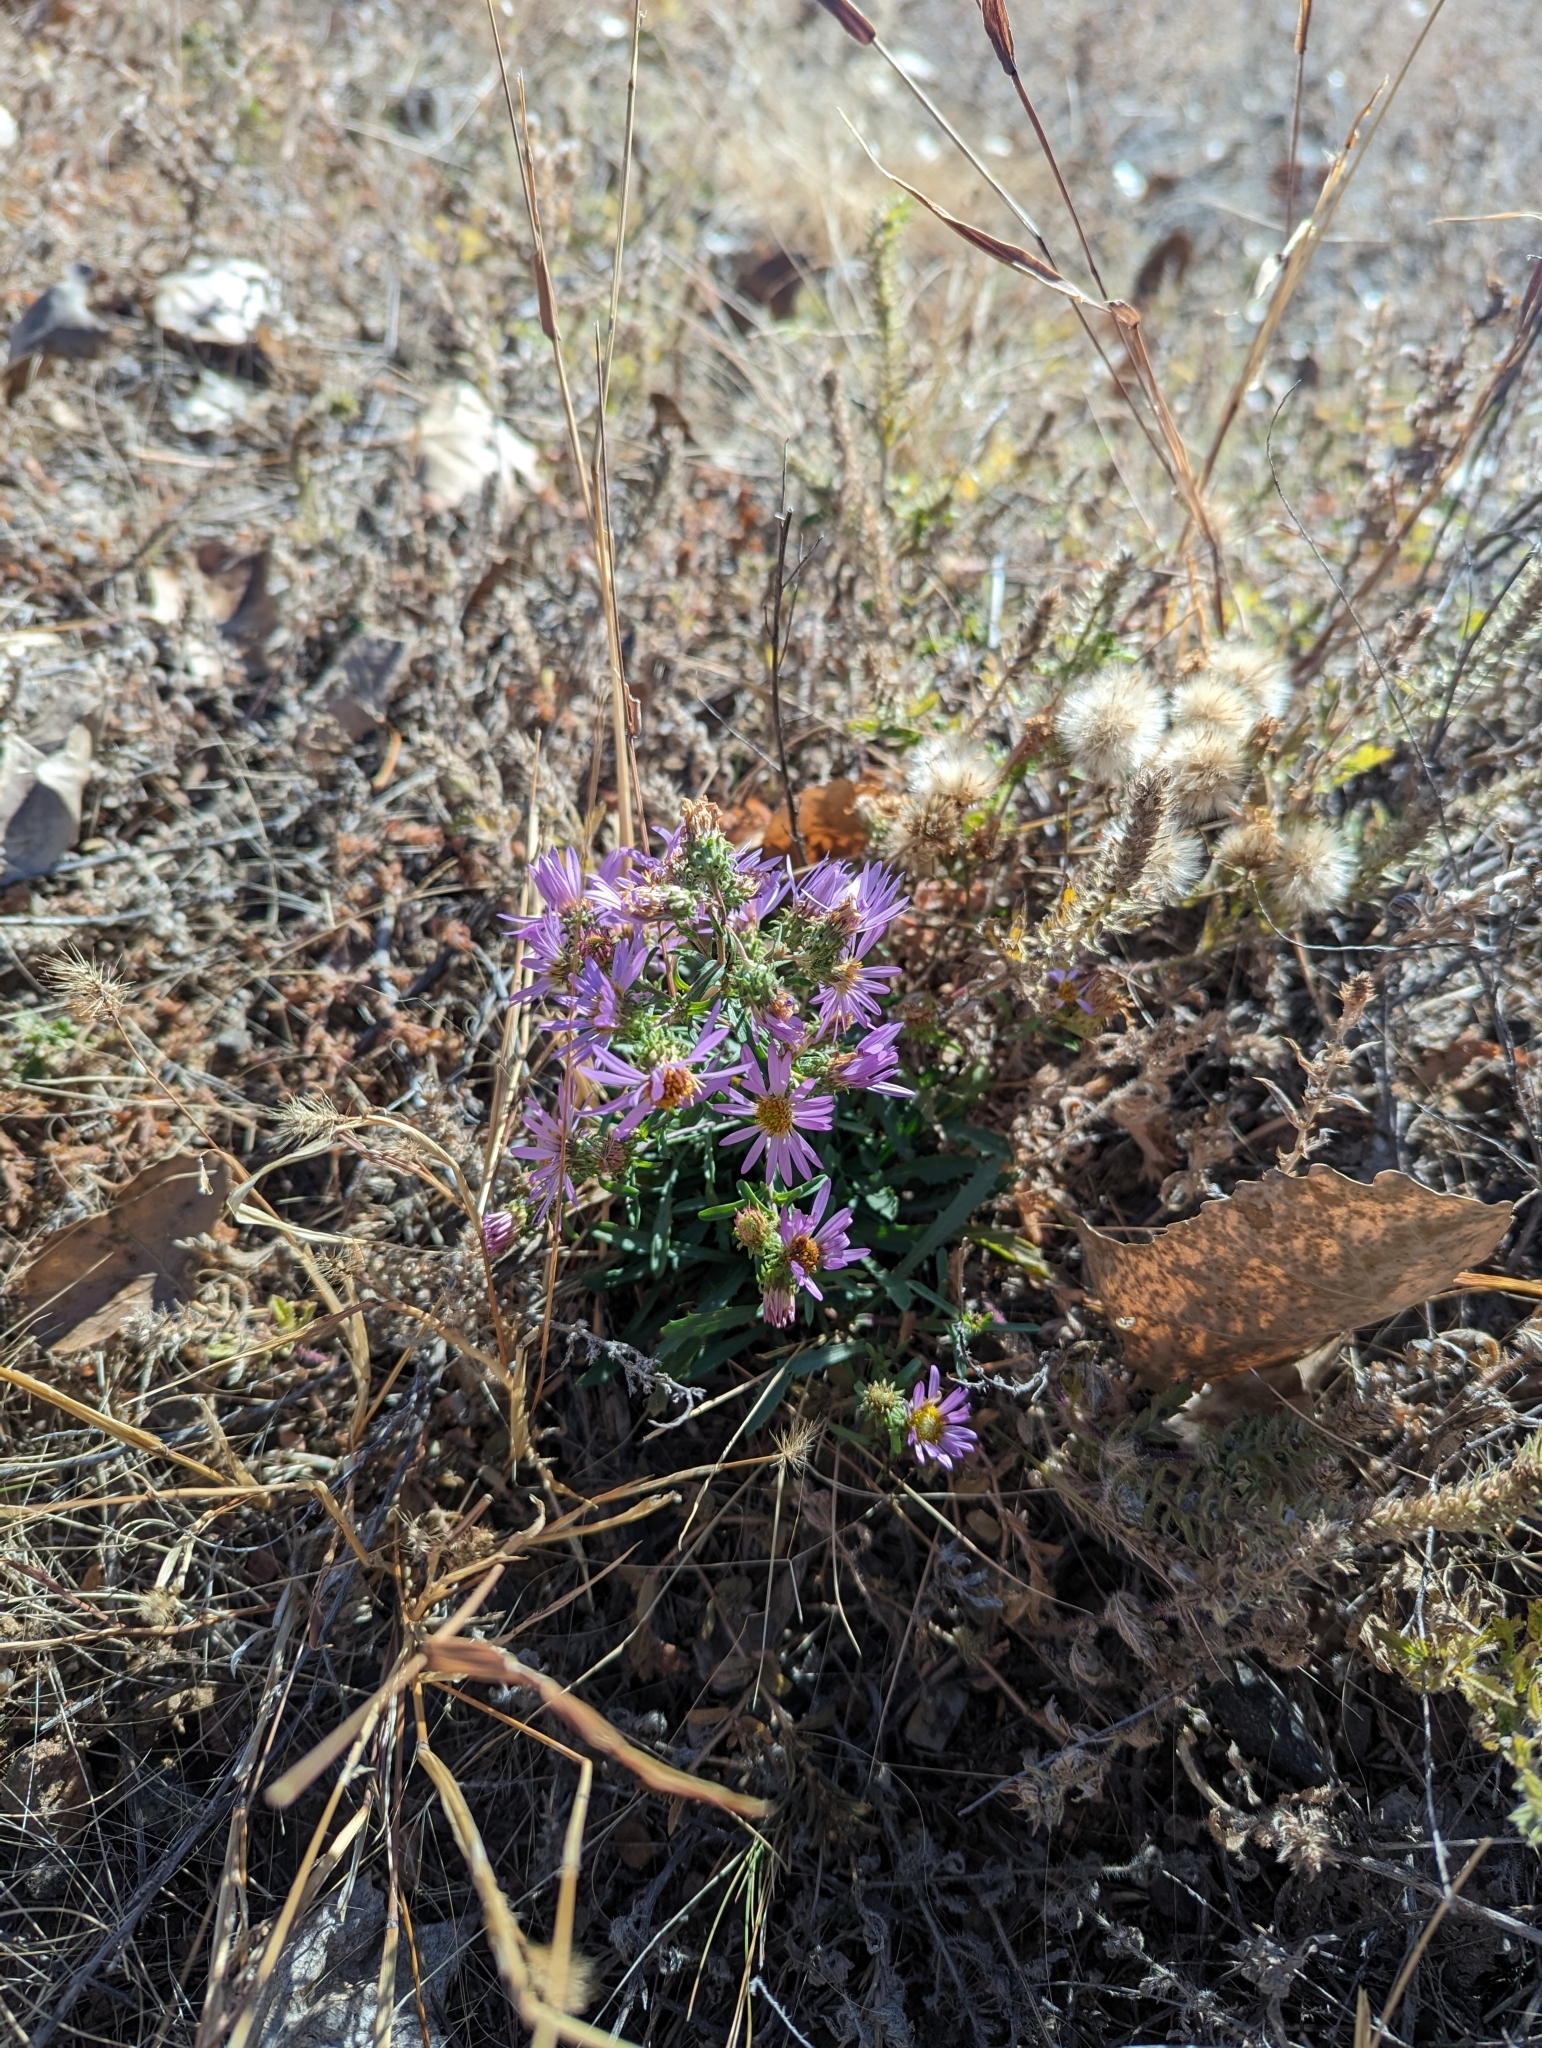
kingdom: Plantae
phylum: Tracheophyta
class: Magnoliopsida
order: Asterales
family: Asteraceae
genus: Dieteria
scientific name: Dieteria canescens
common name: Hoary-aster
